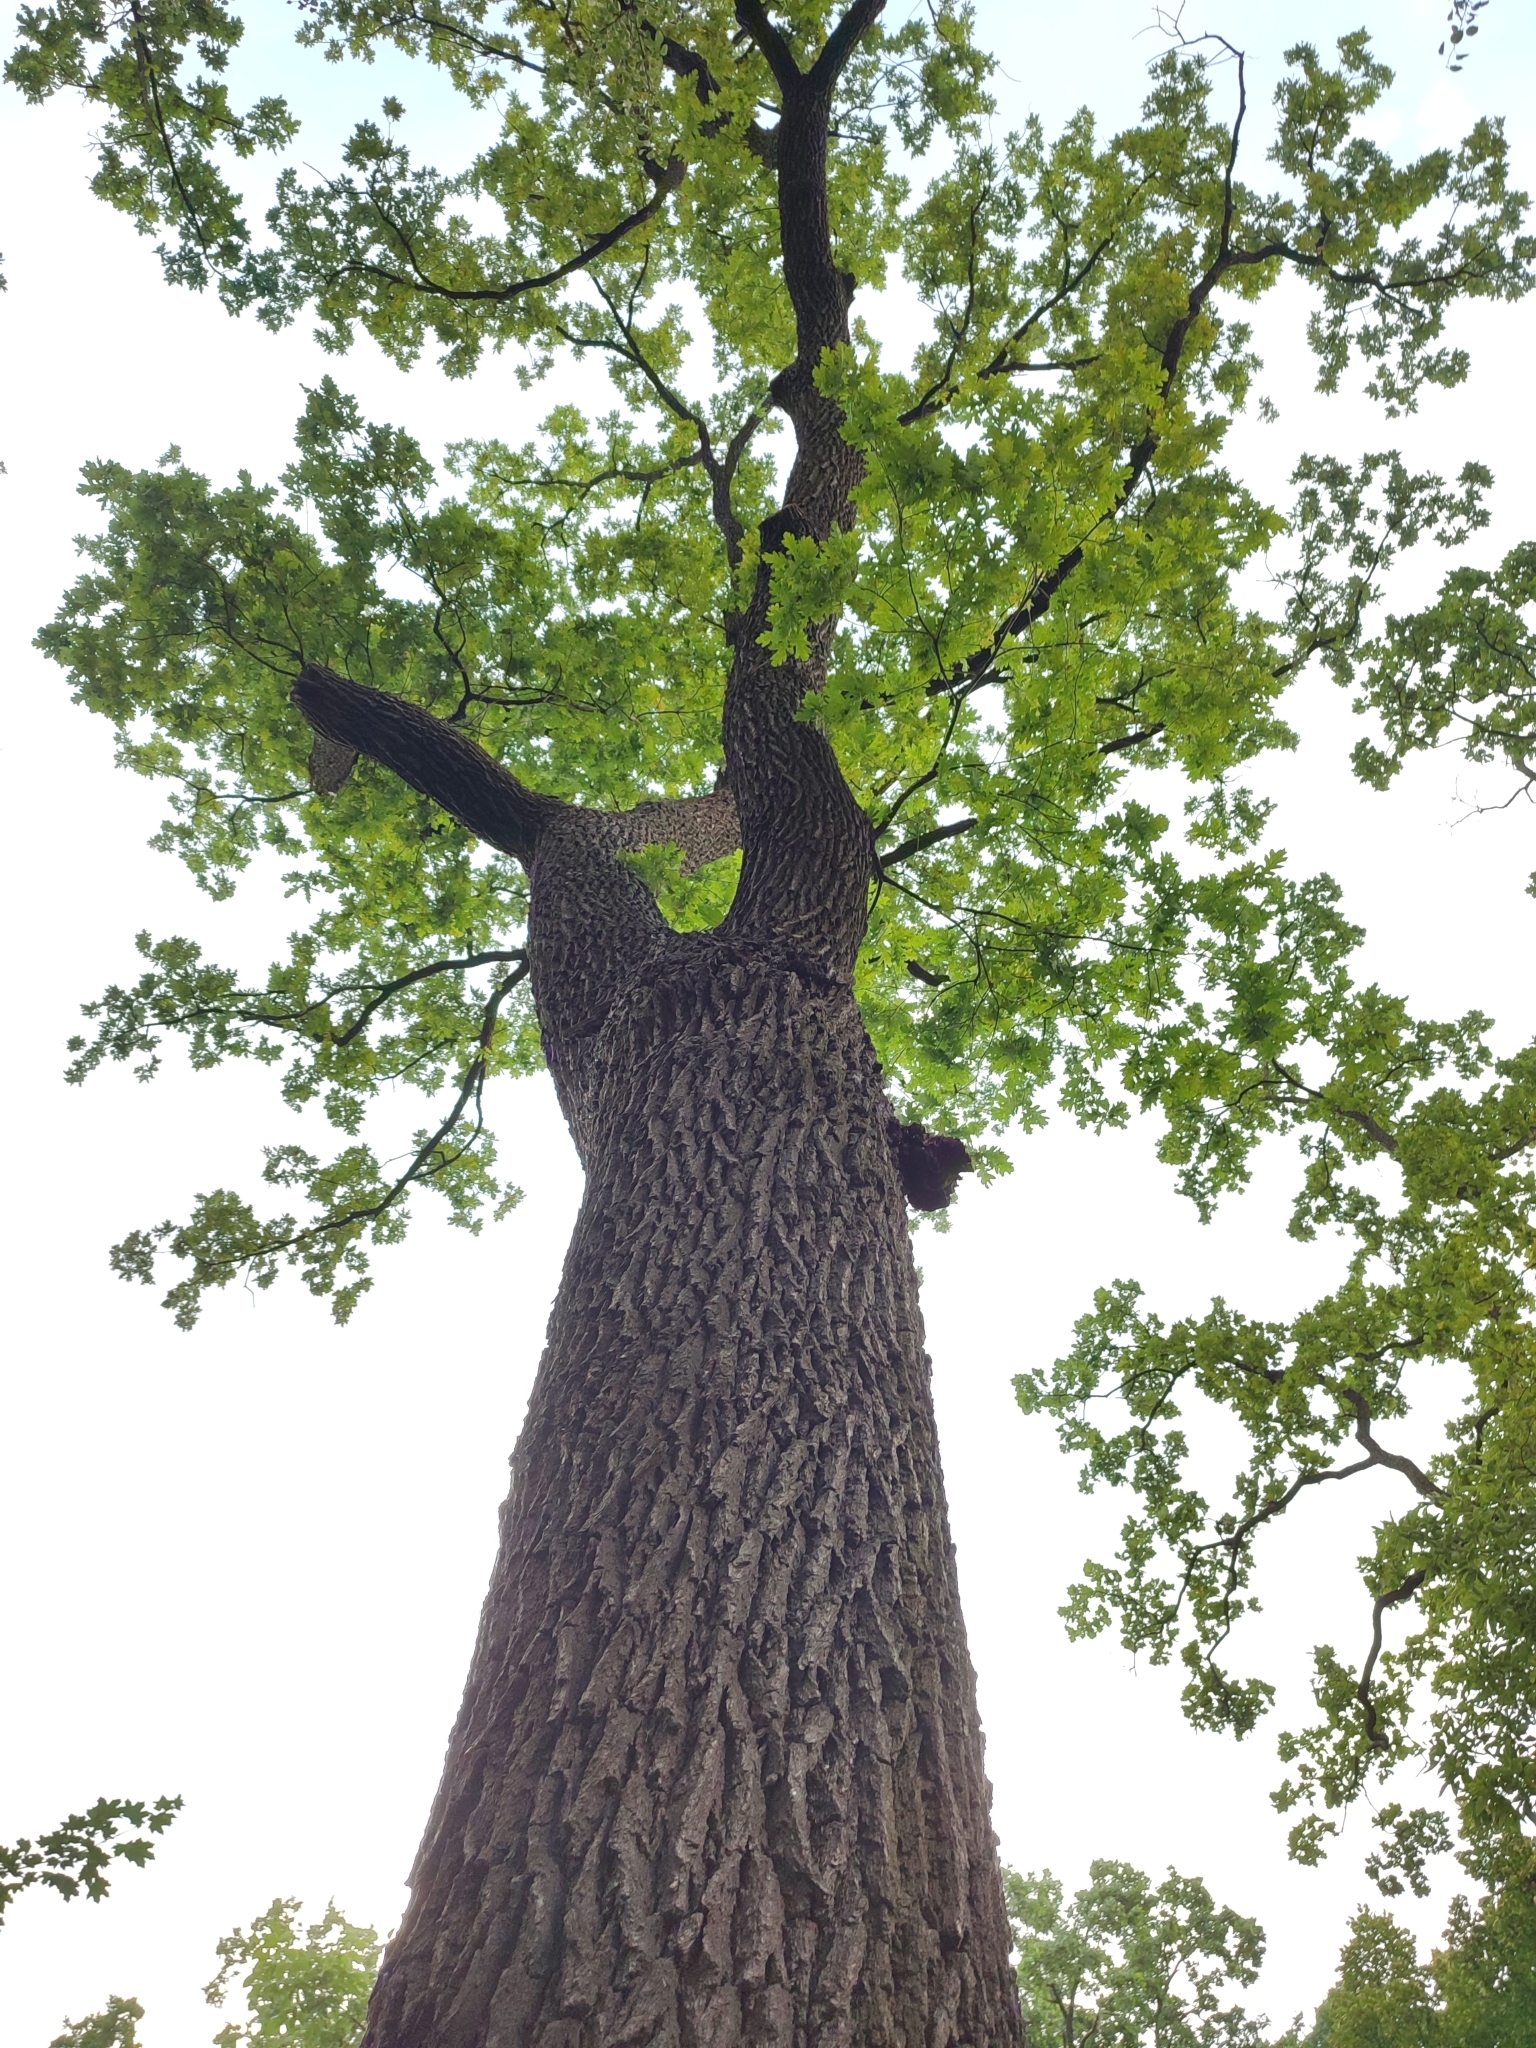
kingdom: Plantae
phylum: Tracheophyta
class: Magnoliopsida
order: Fagales
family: Fagaceae
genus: Quercus
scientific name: Quercus robur
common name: Pedunculate oak
